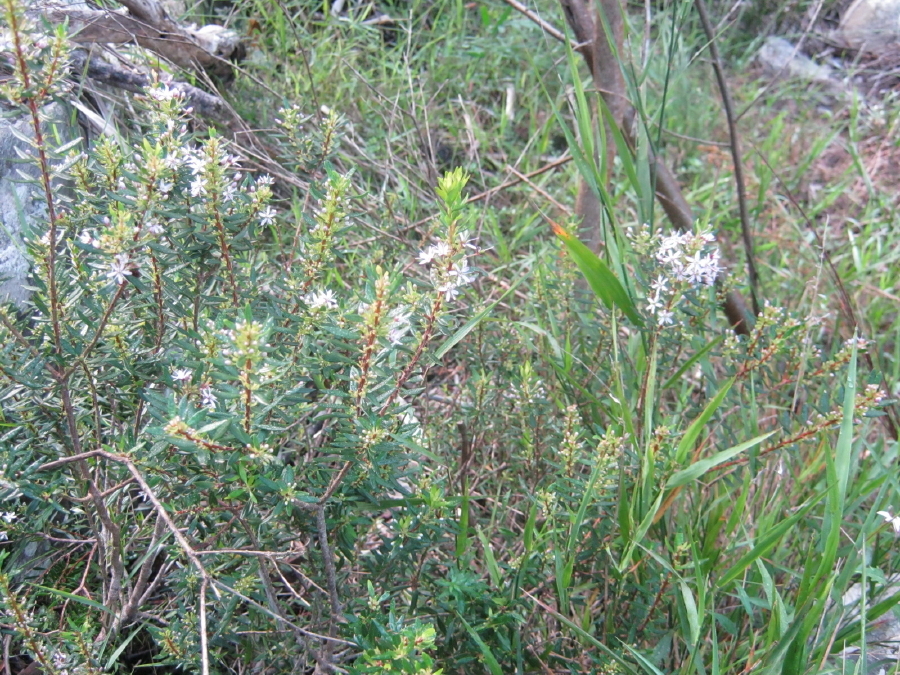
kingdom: Plantae
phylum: Tracheophyta
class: Magnoliopsida
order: Sapindales
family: Rutaceae
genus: Agathosma
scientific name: Agathosma ovata
